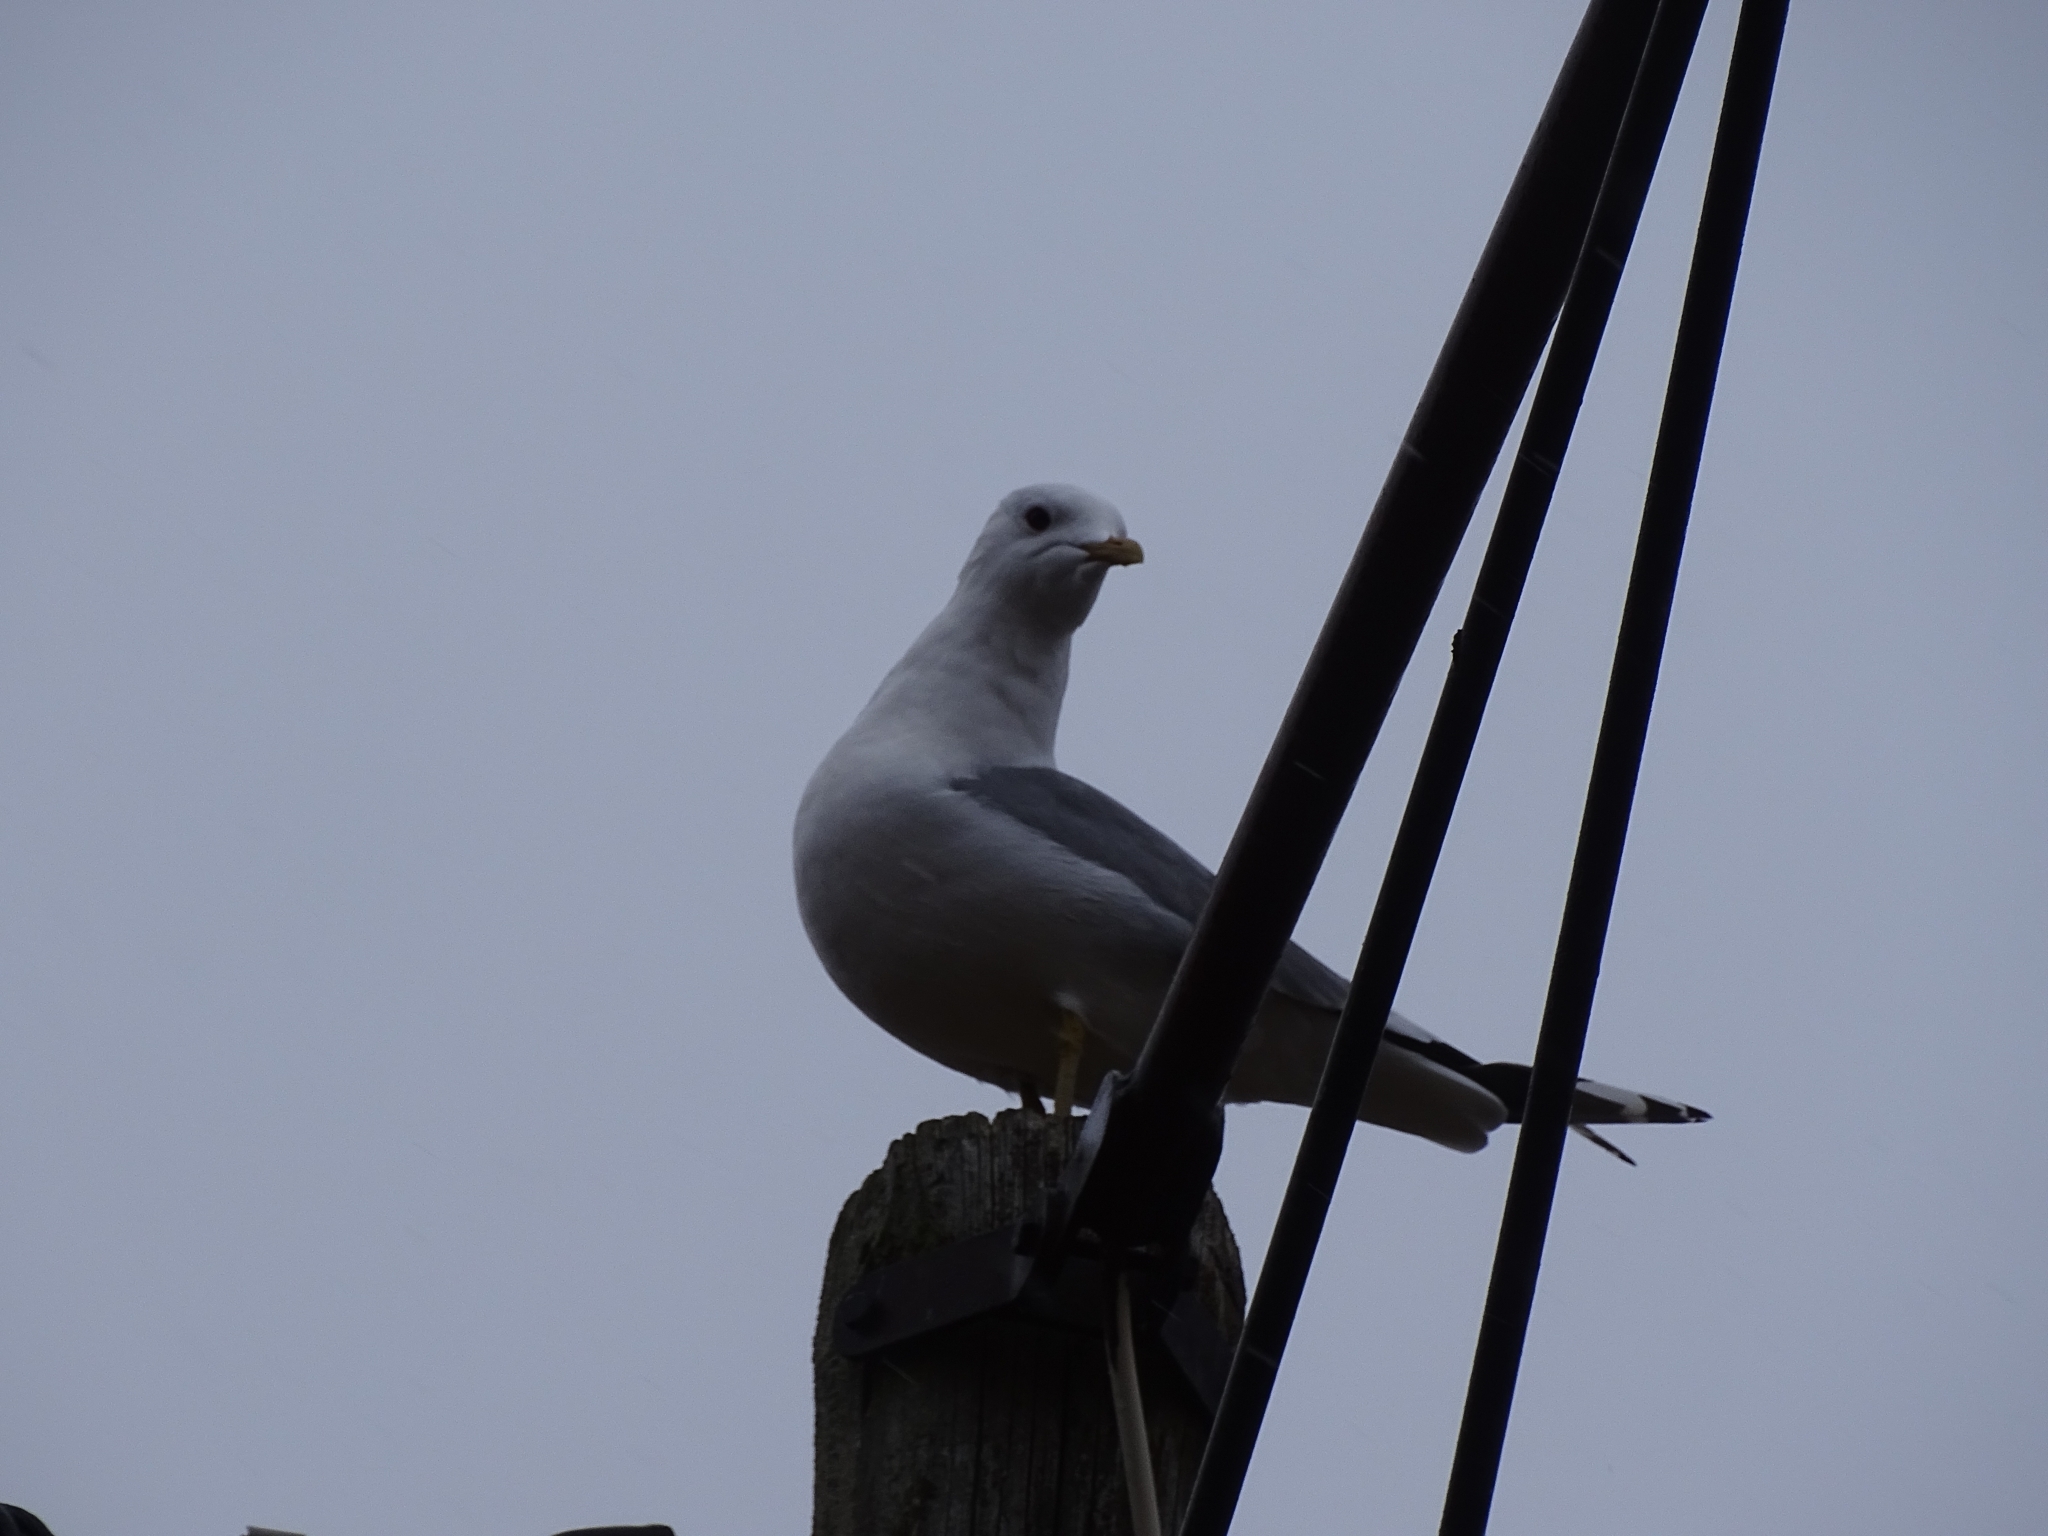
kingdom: Animalia
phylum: Chordata
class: Aves
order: Charadriiformes
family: Laridae
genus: Larus
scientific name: Larus canus
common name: Mew gull
